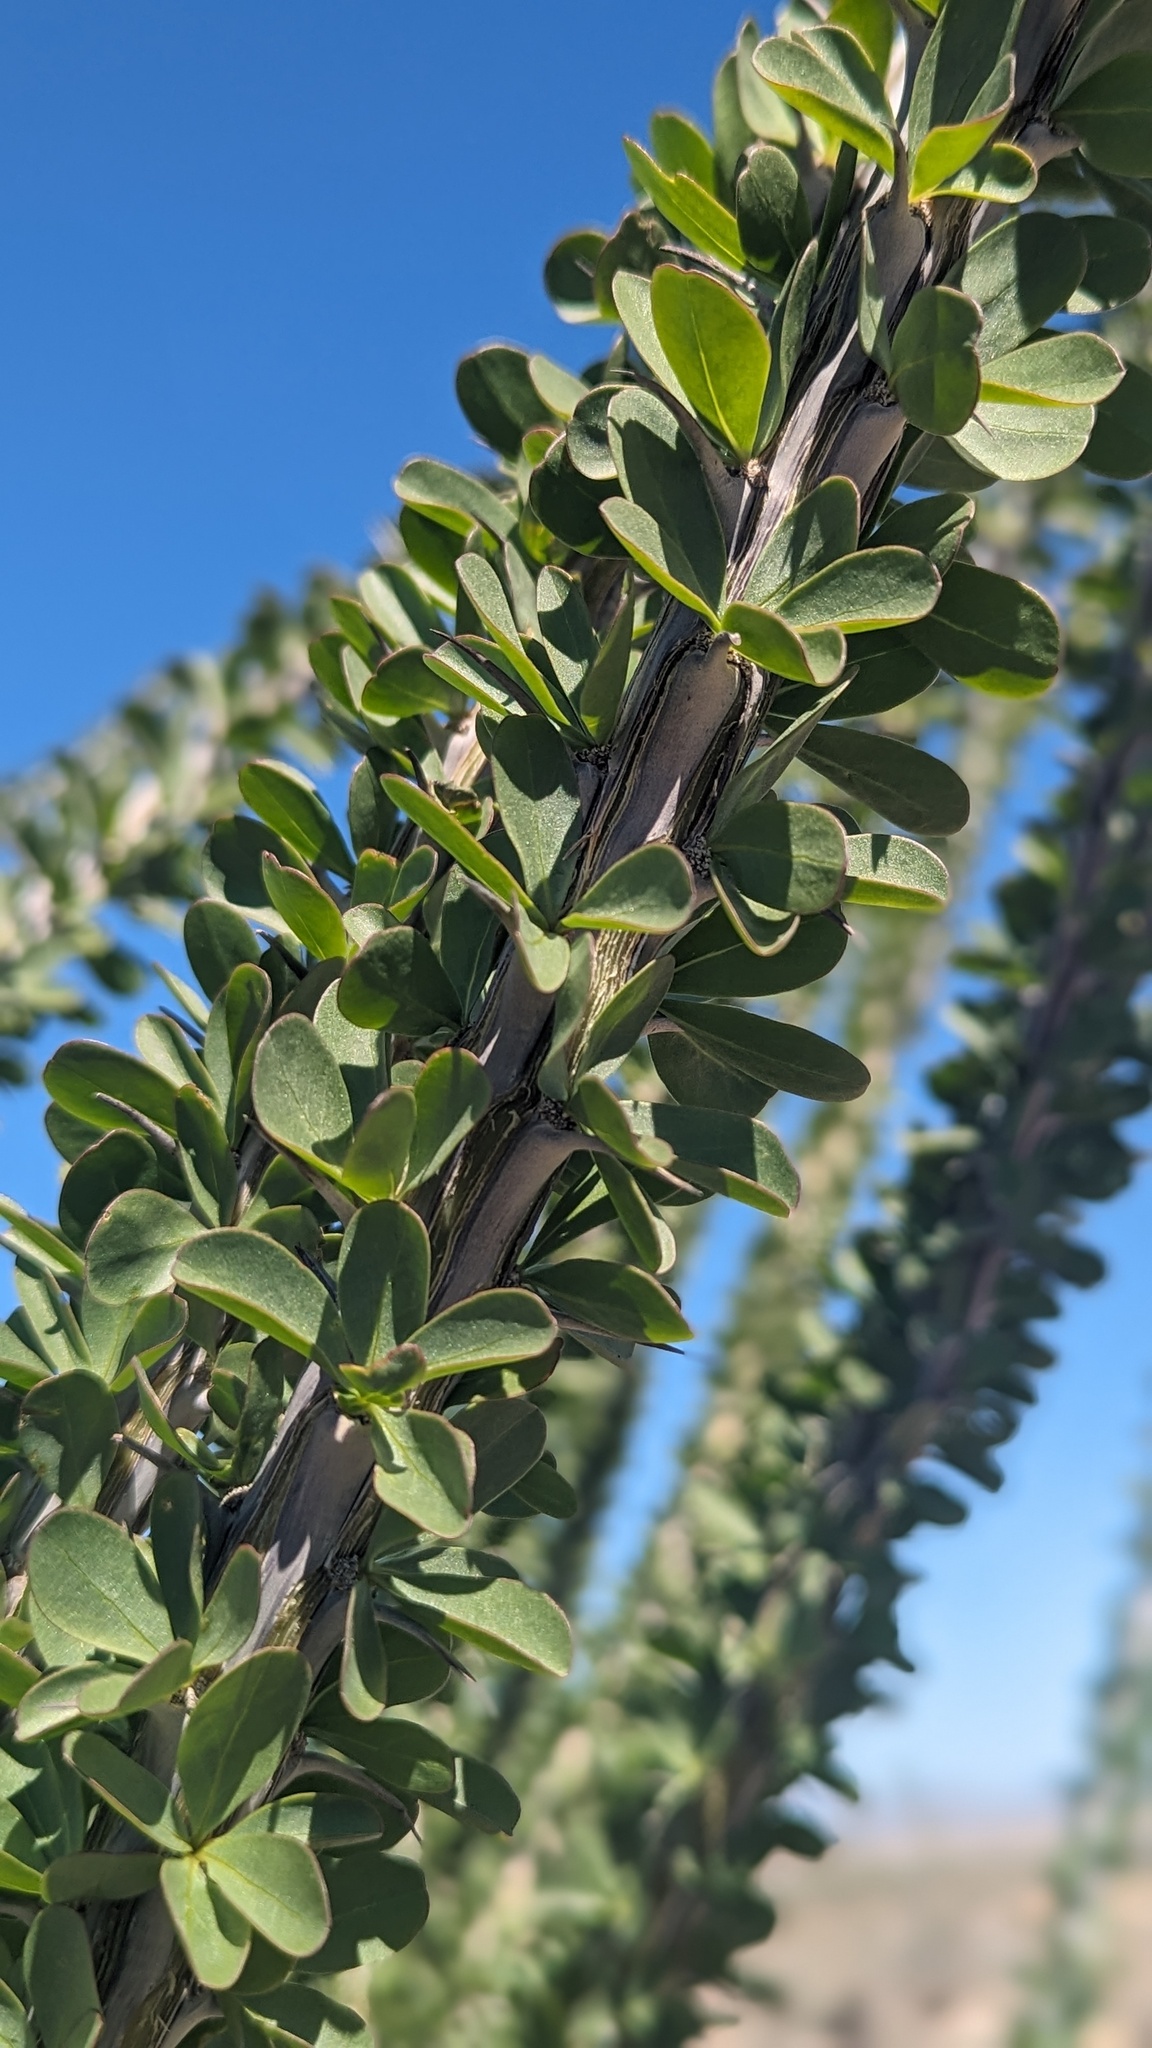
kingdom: Plantae
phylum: Tracheophyta
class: Magnoliopsida
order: Ericales
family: Fouquieriaceae
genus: Fouquieria
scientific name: Fouquieria splendens
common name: Vine-cactus
